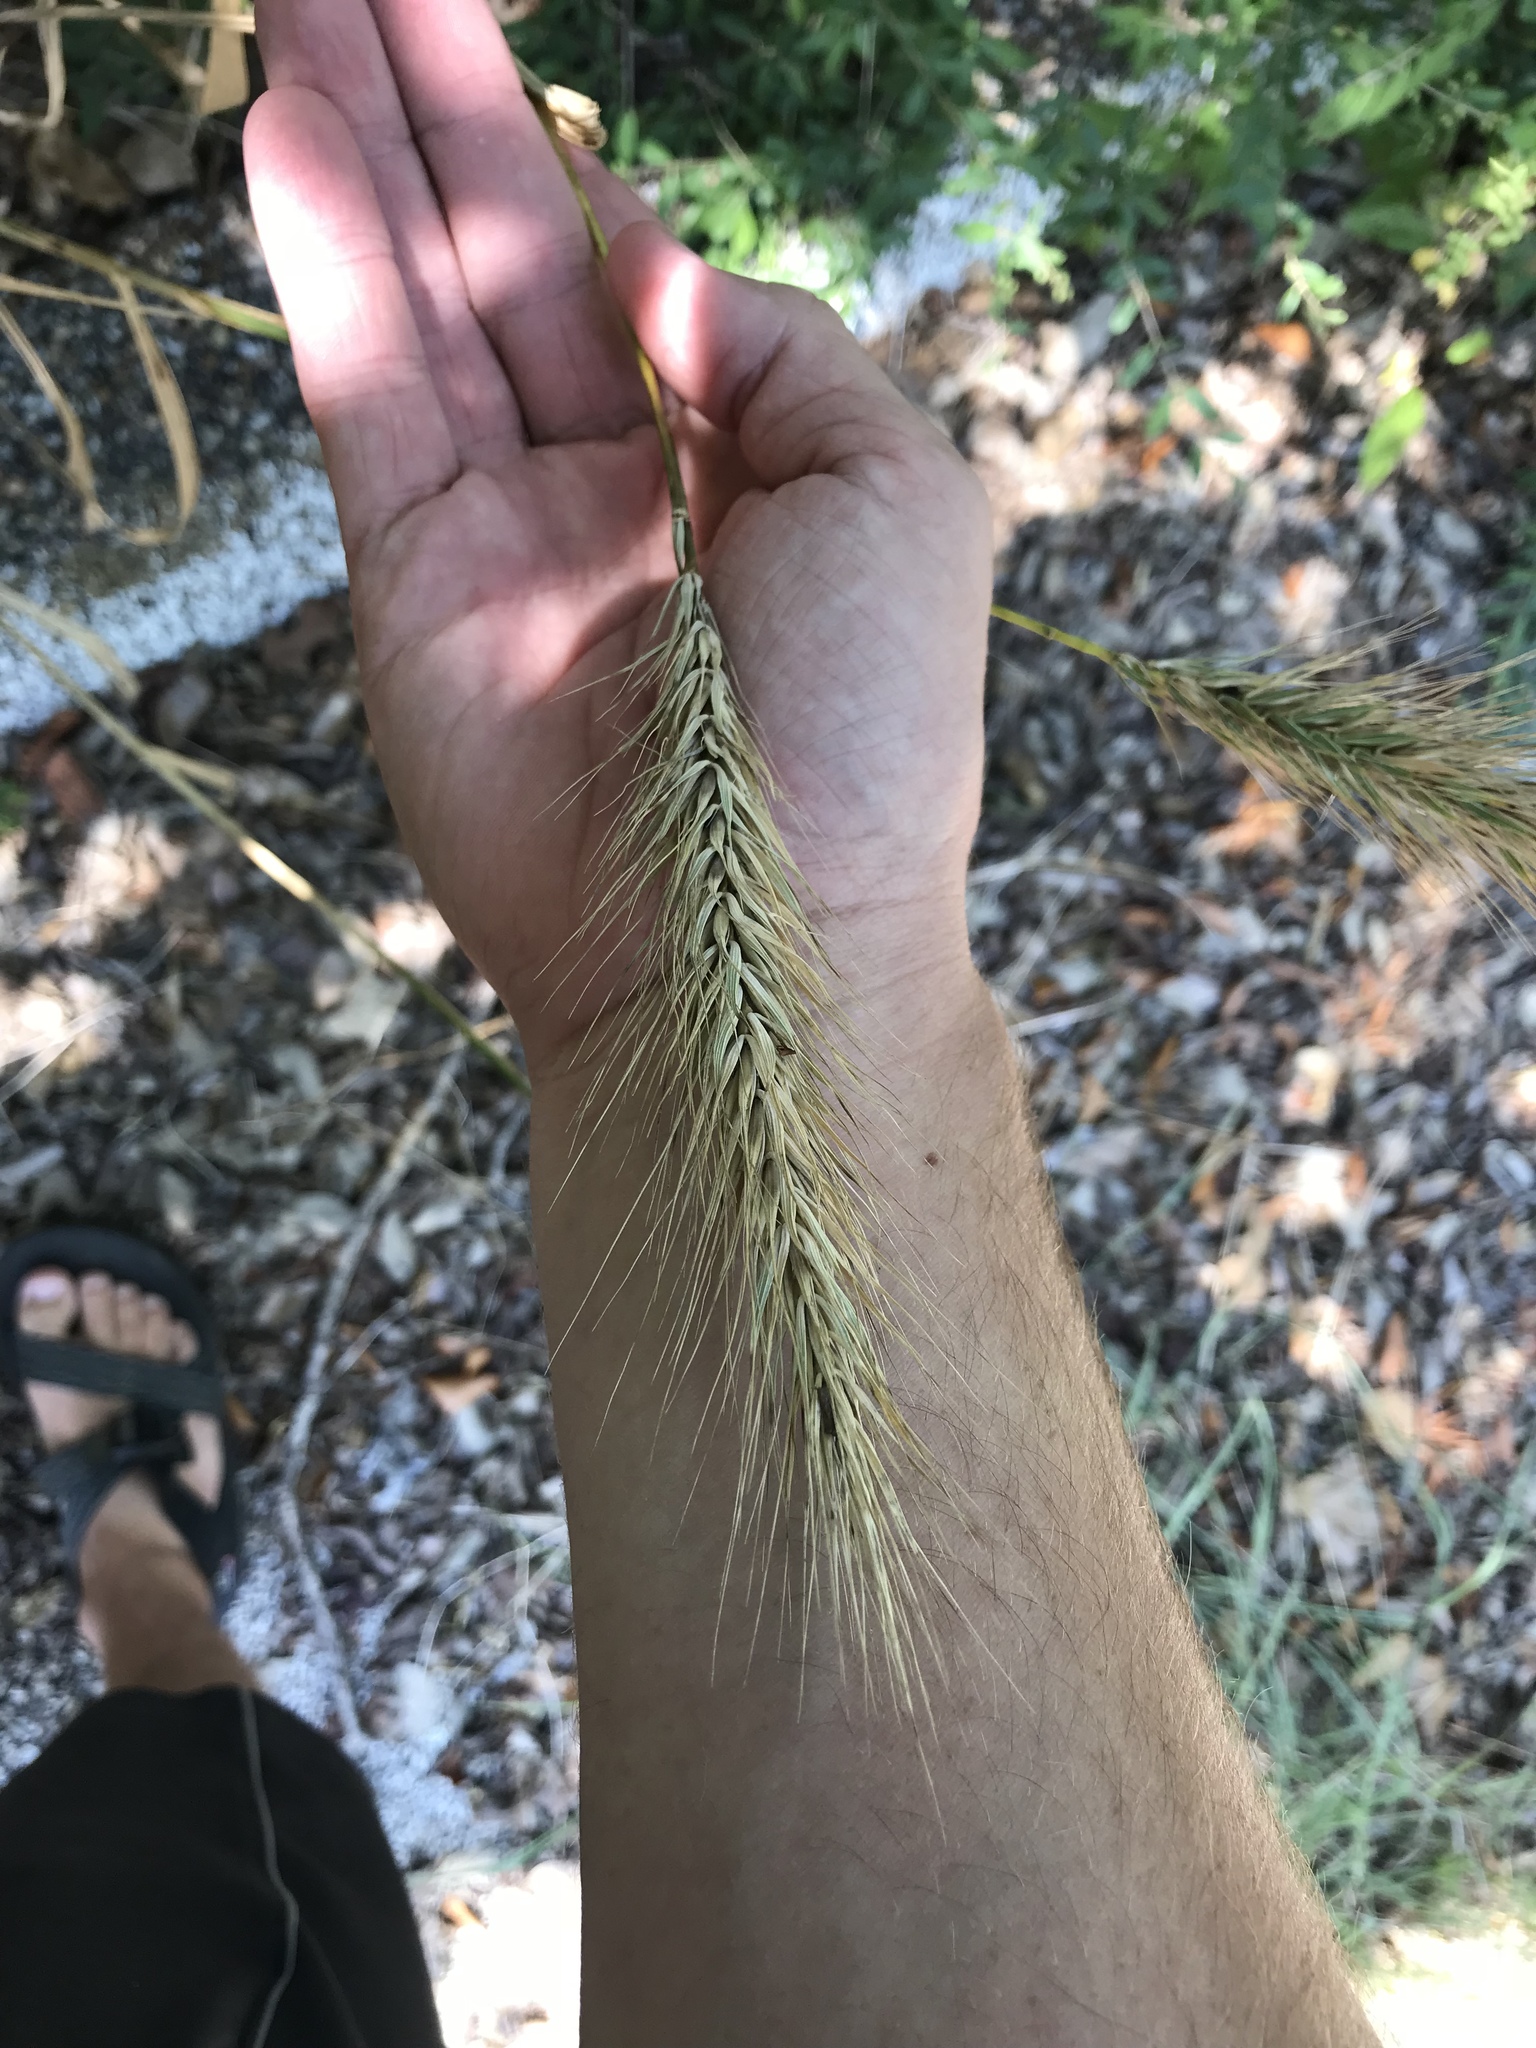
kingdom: Plantae
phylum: Tracheophyta
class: Liliopsida
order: Poales
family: Poaceae
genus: Elymus
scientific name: Elymus virginicus
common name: Common eastern wildrye
